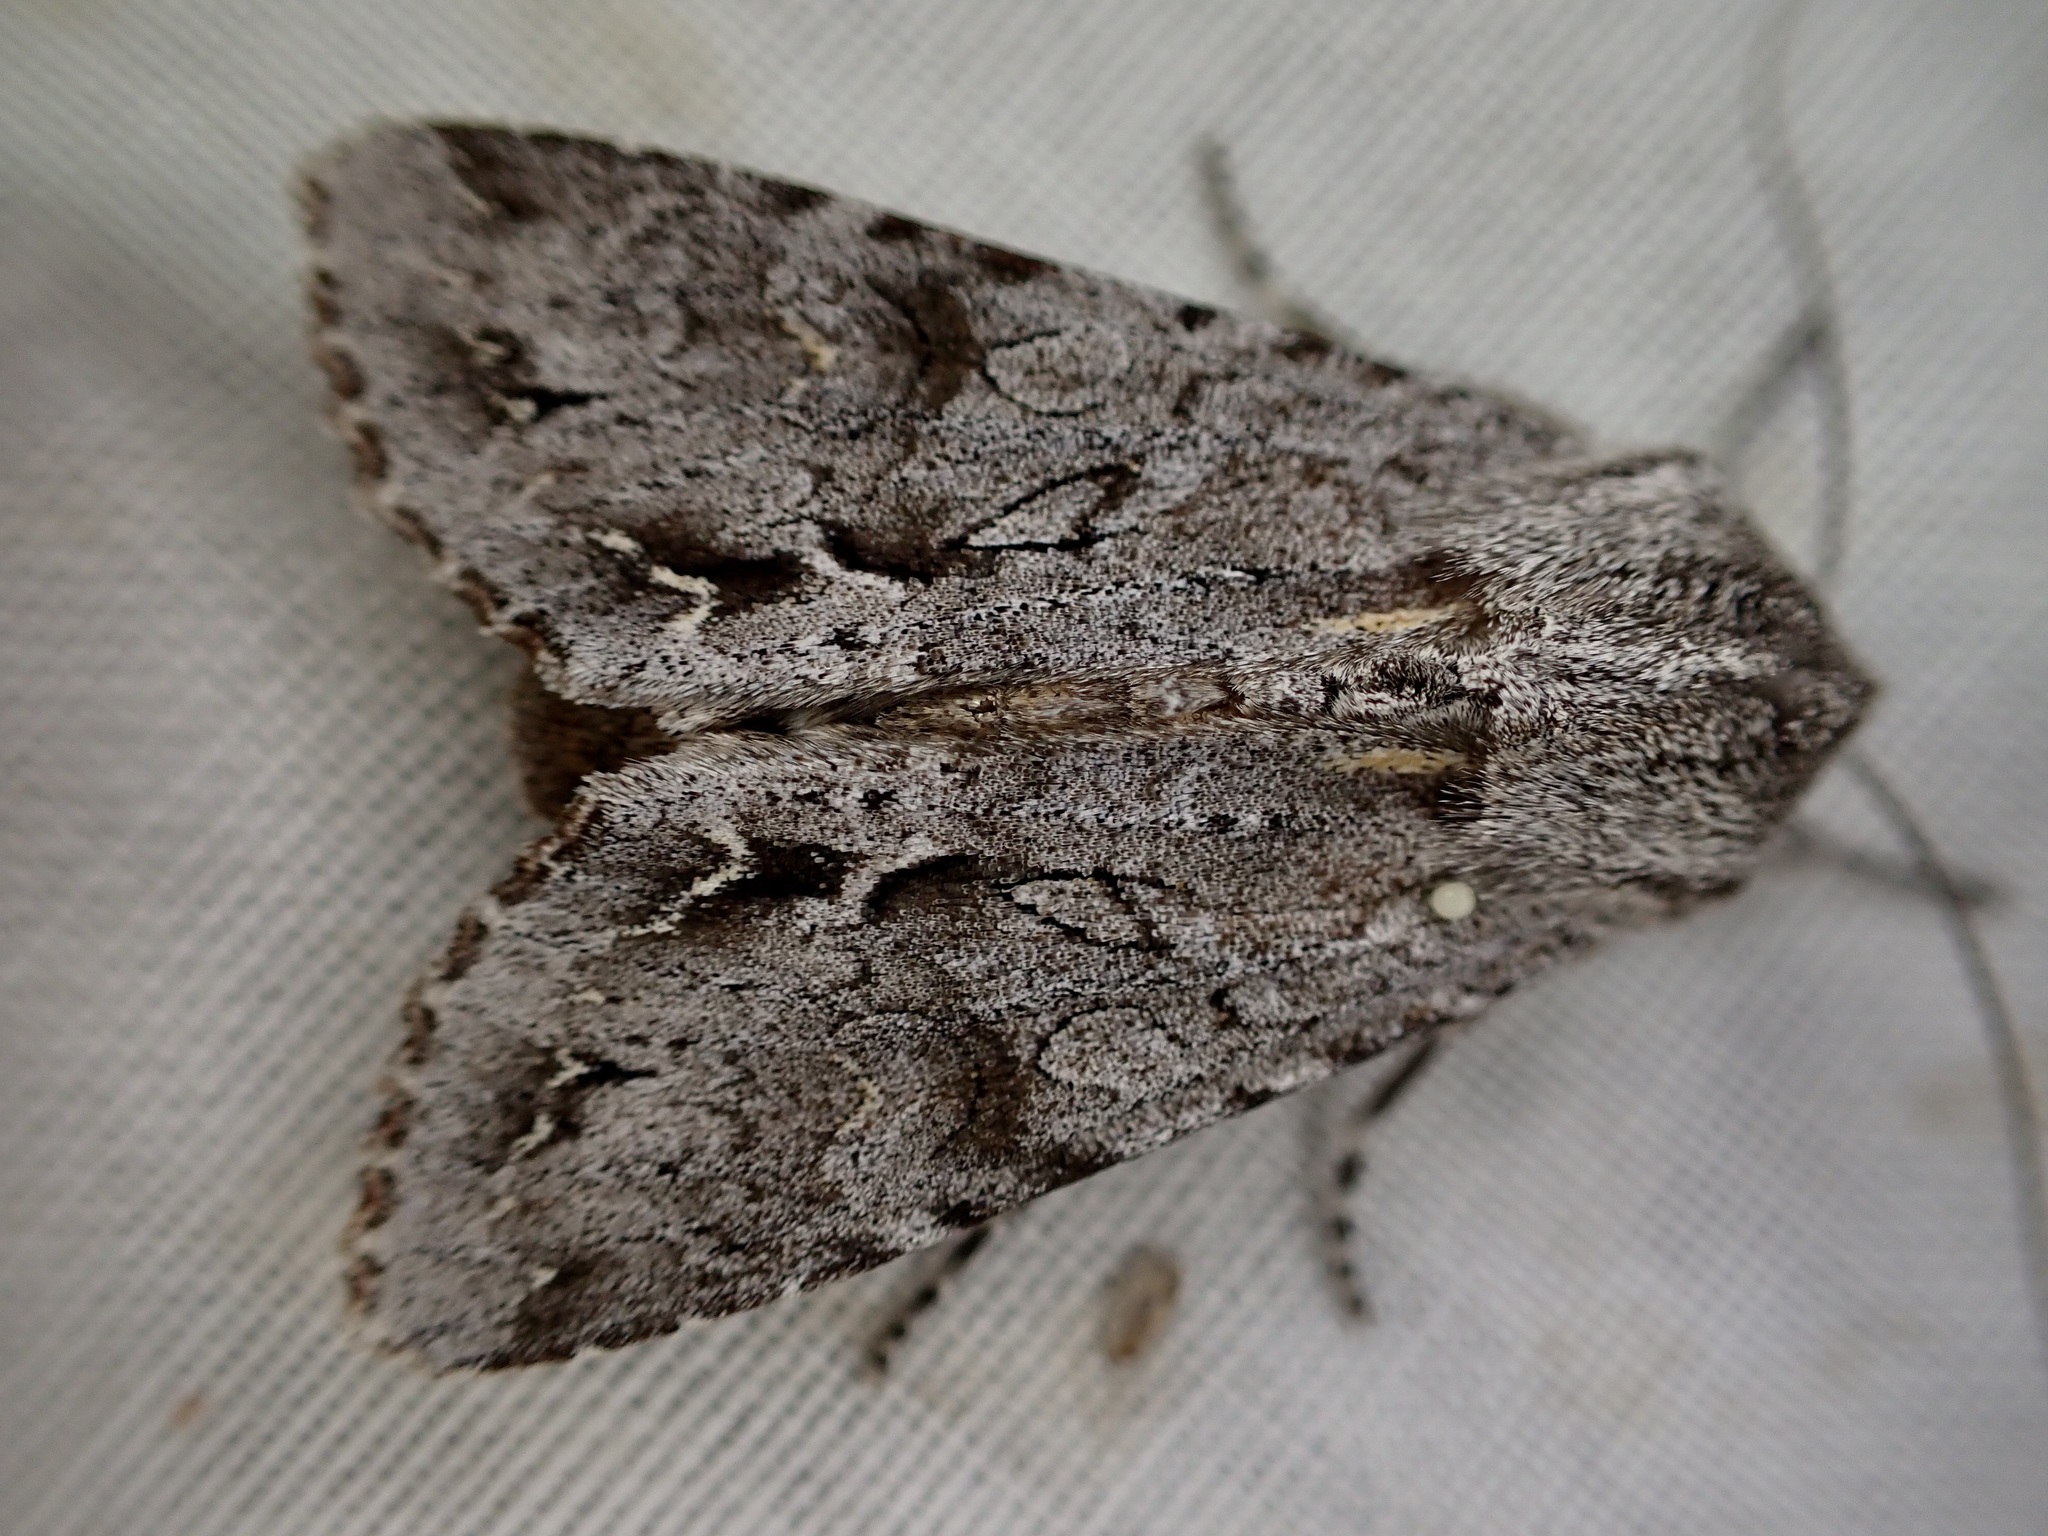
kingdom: Animalia
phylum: Arthropoda
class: Insecta
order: Lepidoptera
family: Noctuidae
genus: Ichneutica
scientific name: Ichneutica
